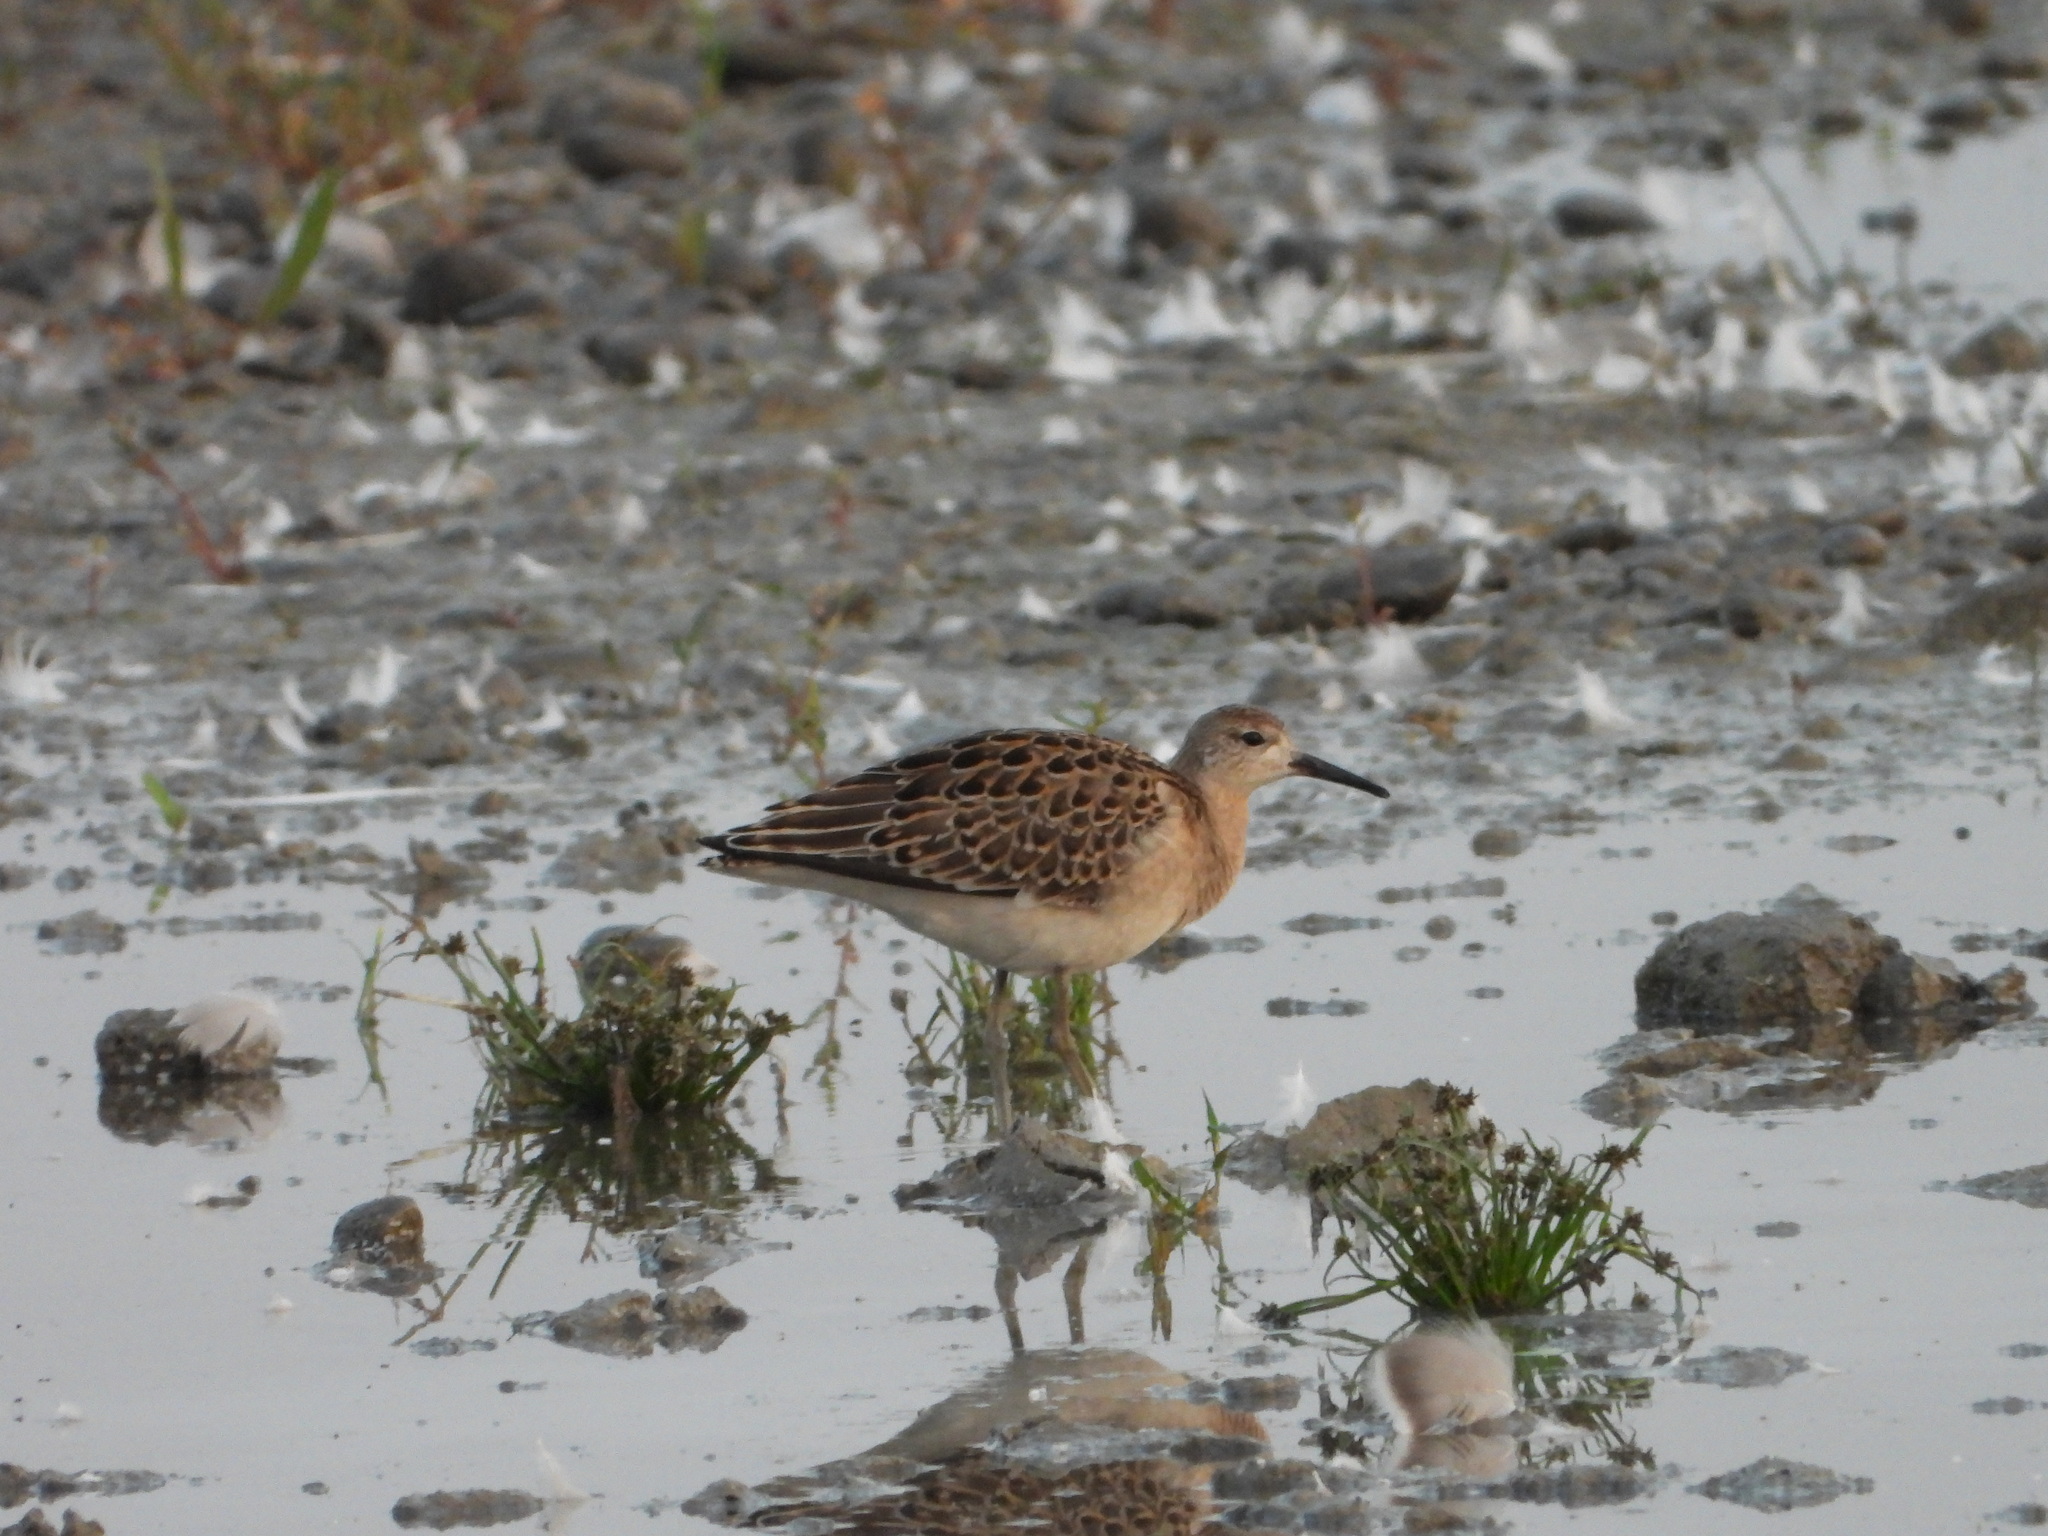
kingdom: Animalia
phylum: Chordata
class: Aves
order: Charadriiformes
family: Scolopacidae
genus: Calidris
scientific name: Calidris pugnax
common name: Ruff
